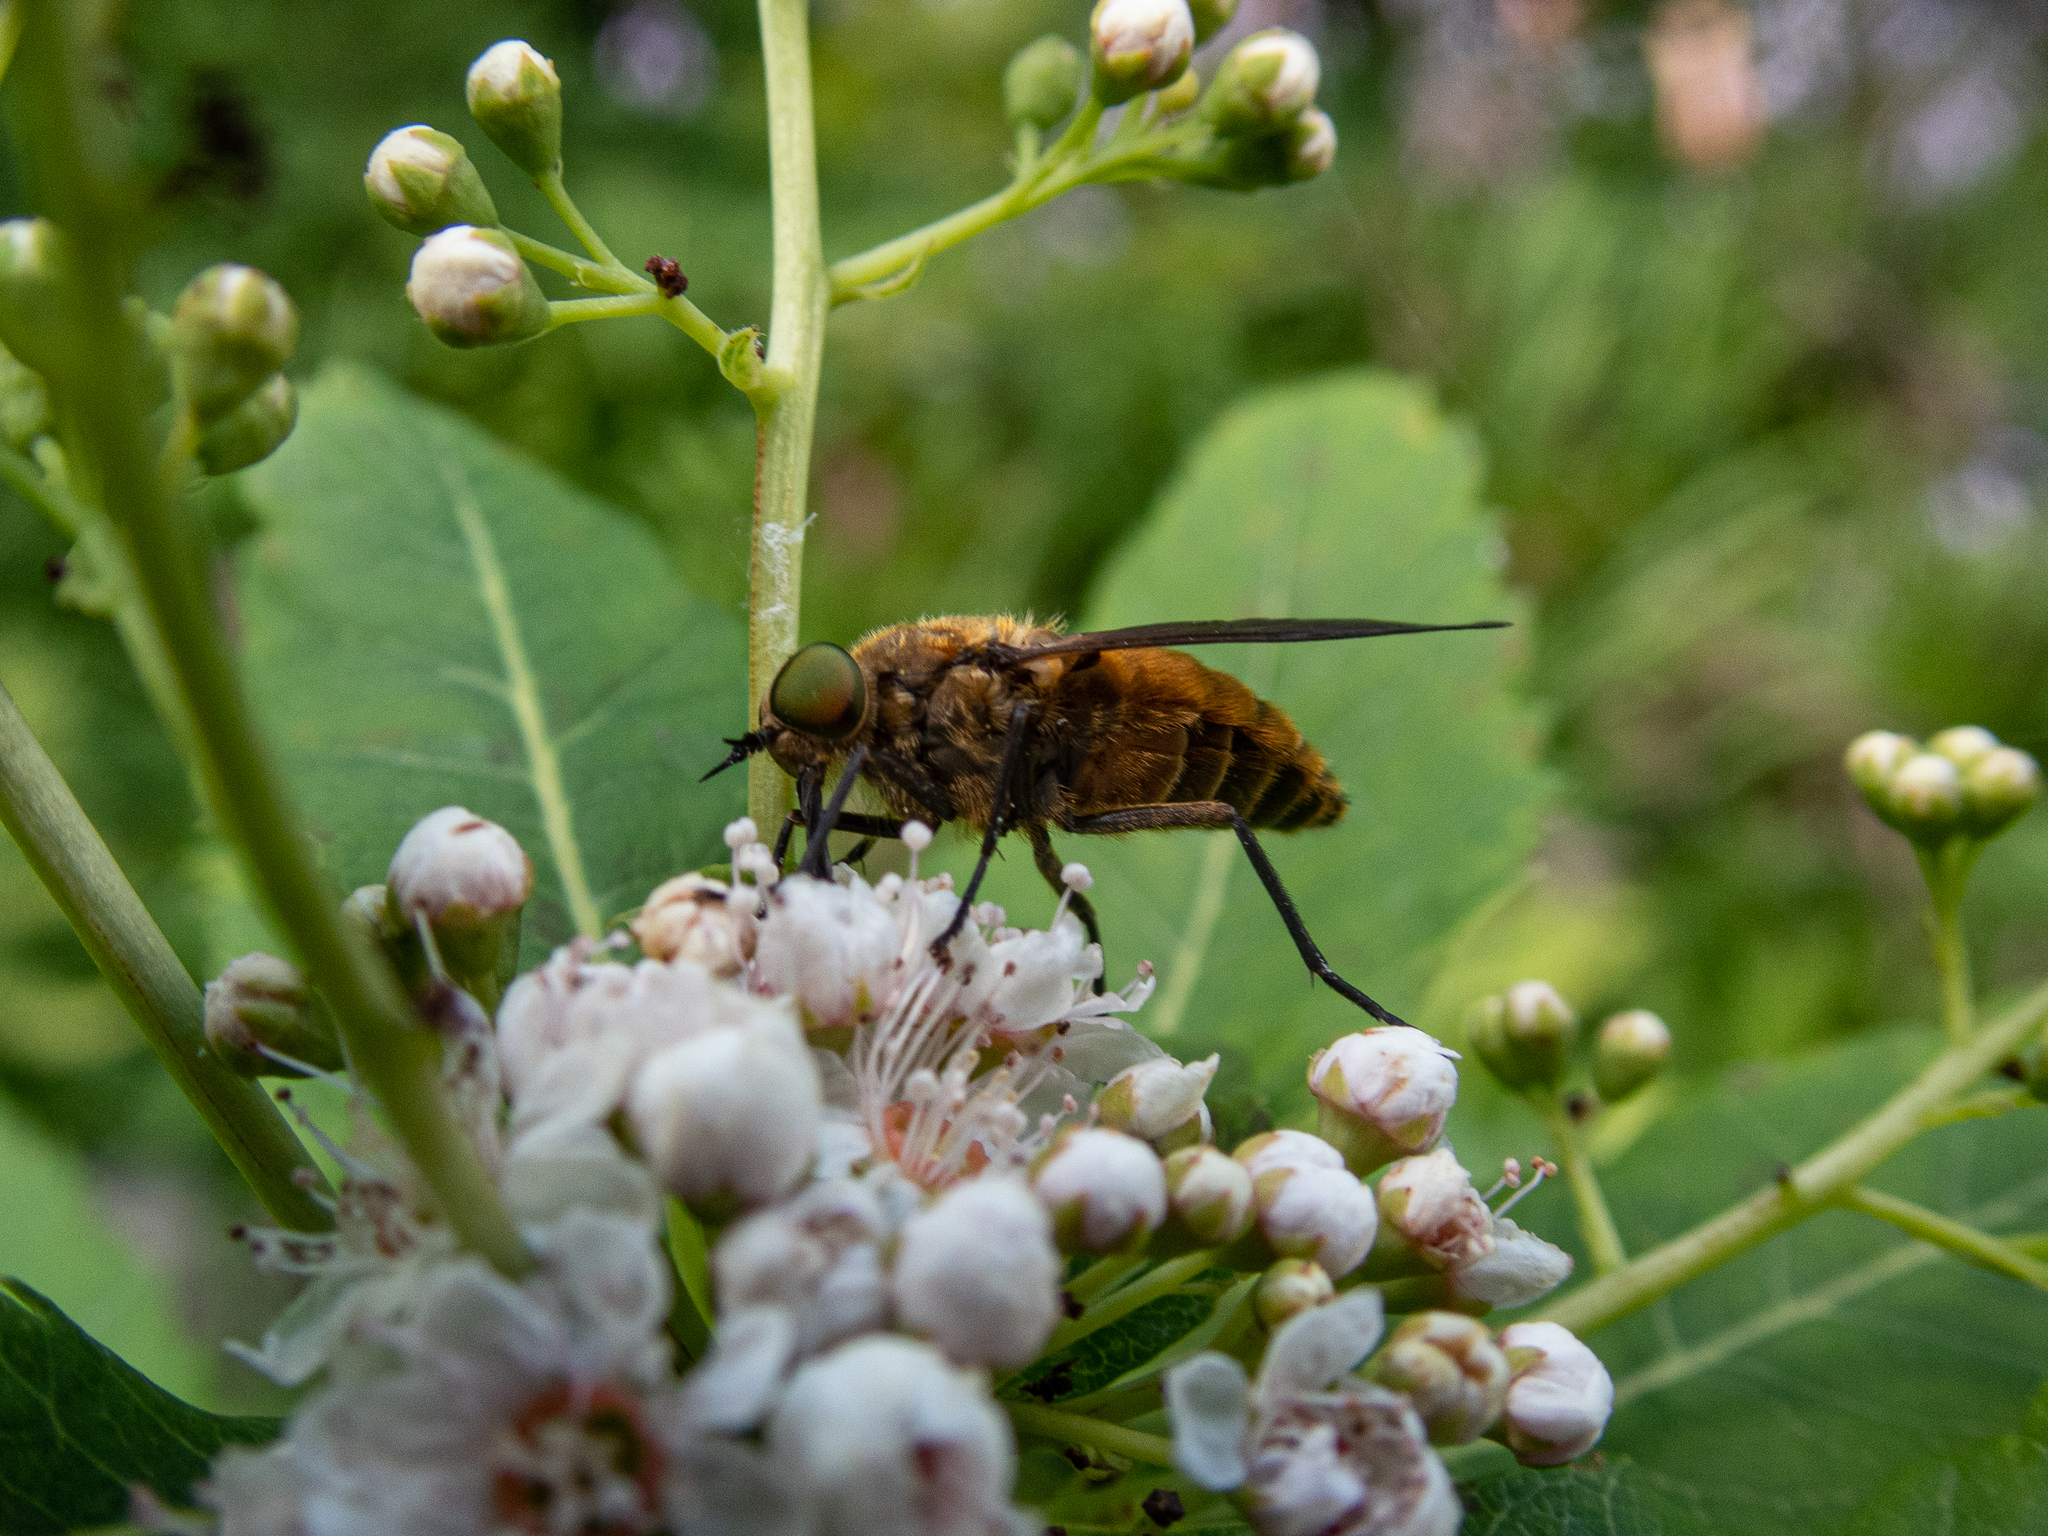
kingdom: Animalia
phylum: Arthropoda
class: Insecta
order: Diptera
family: Tabanidae
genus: Stonemyia
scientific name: Stonemyia tranquilla
